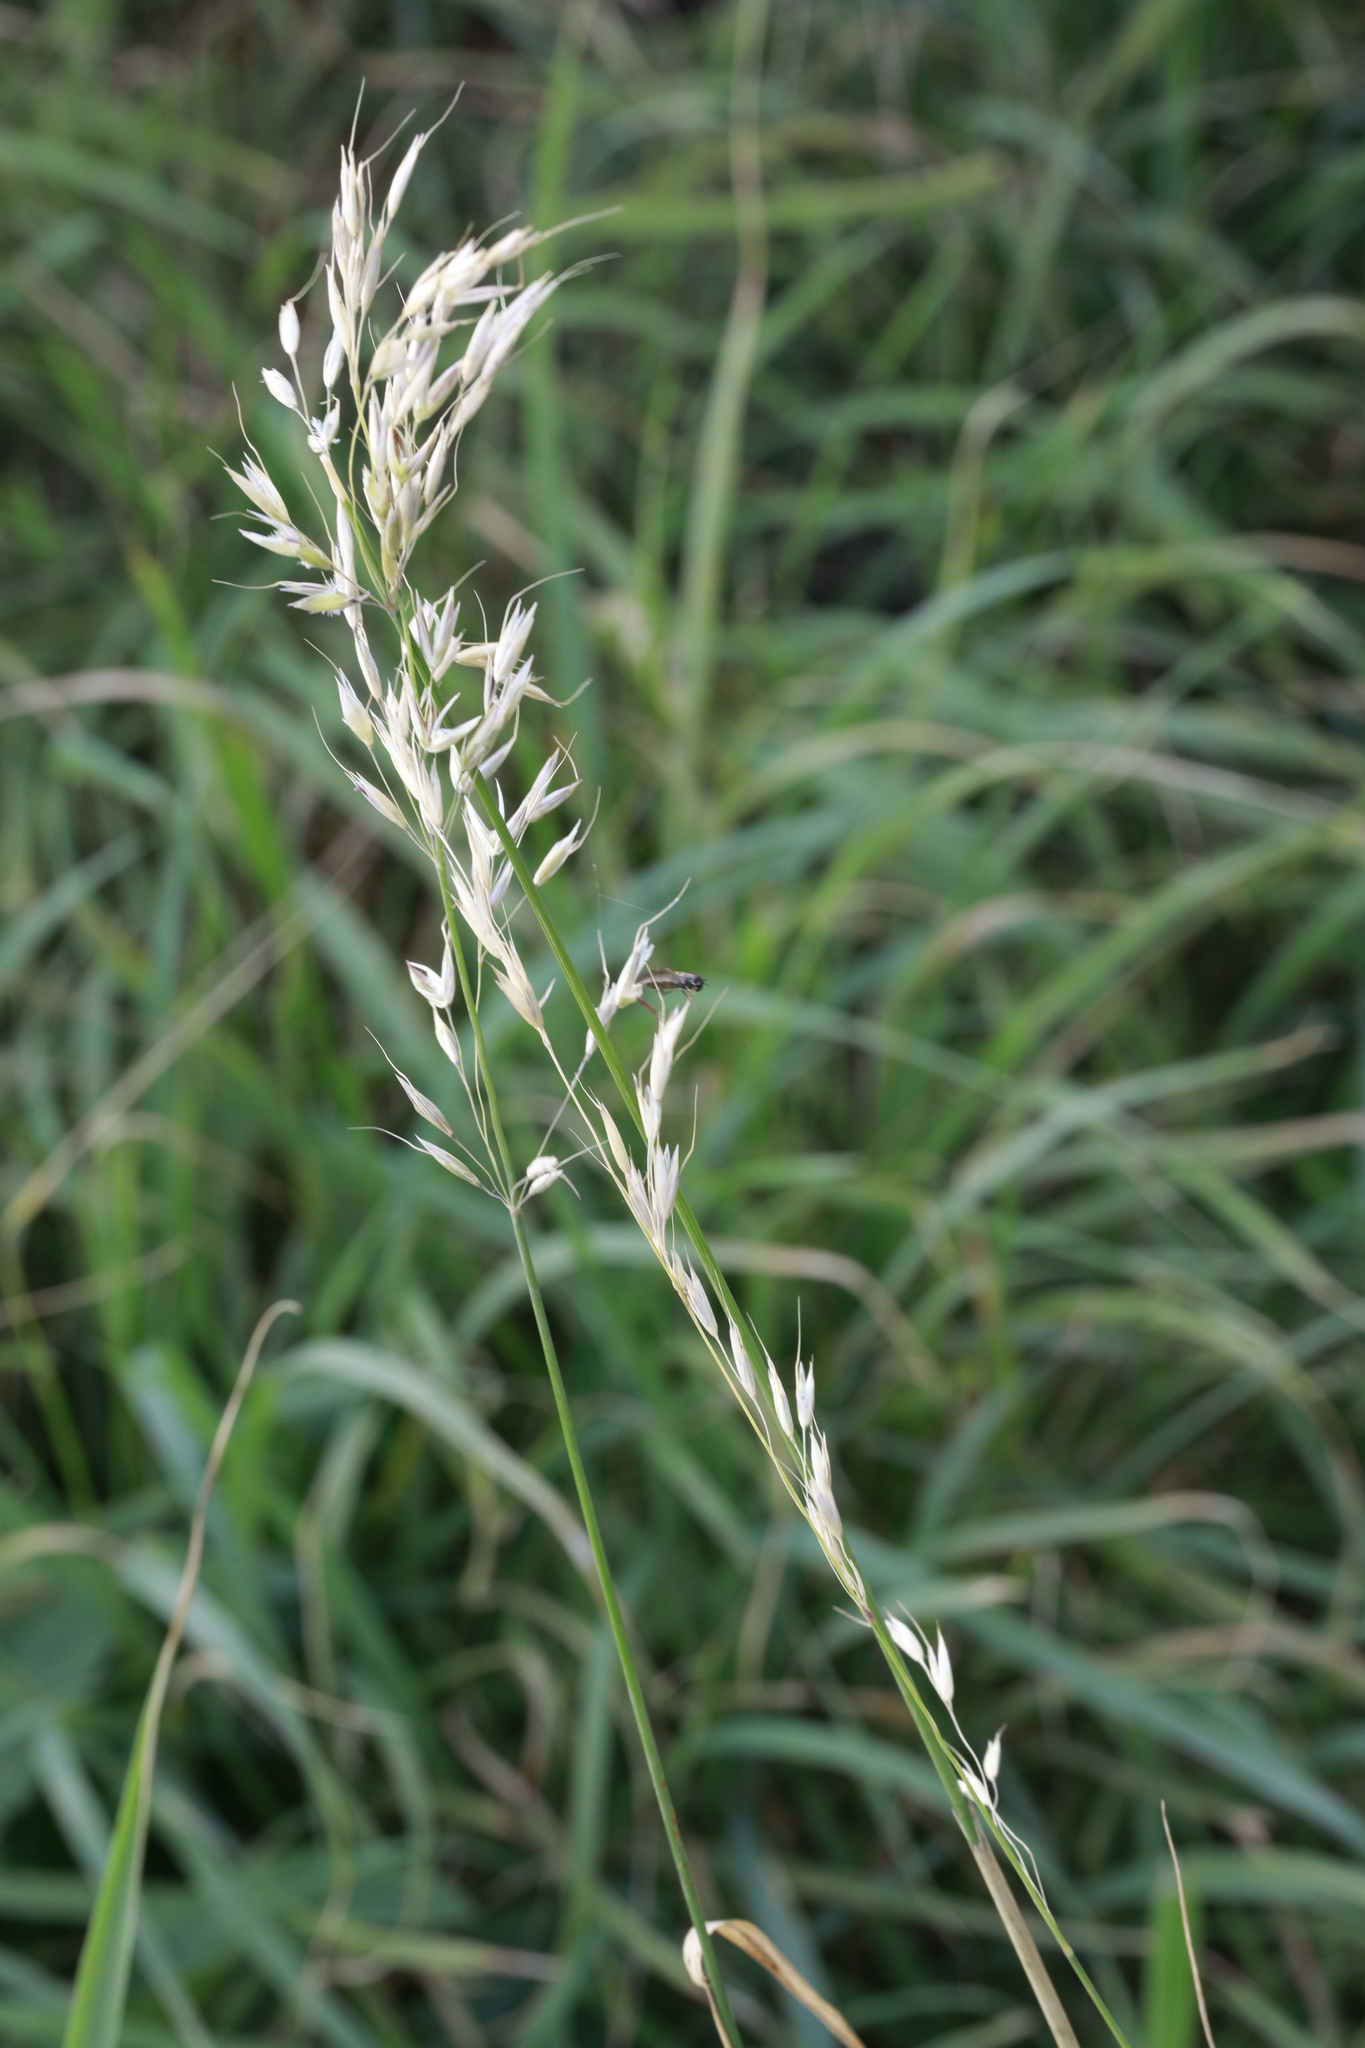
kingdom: Plantae
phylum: Tracheophyta
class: Liliopsida
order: Poales
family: Poaceae
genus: Arrhenatherum
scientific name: Arrhenatherum elatius
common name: Tall oatgrass
